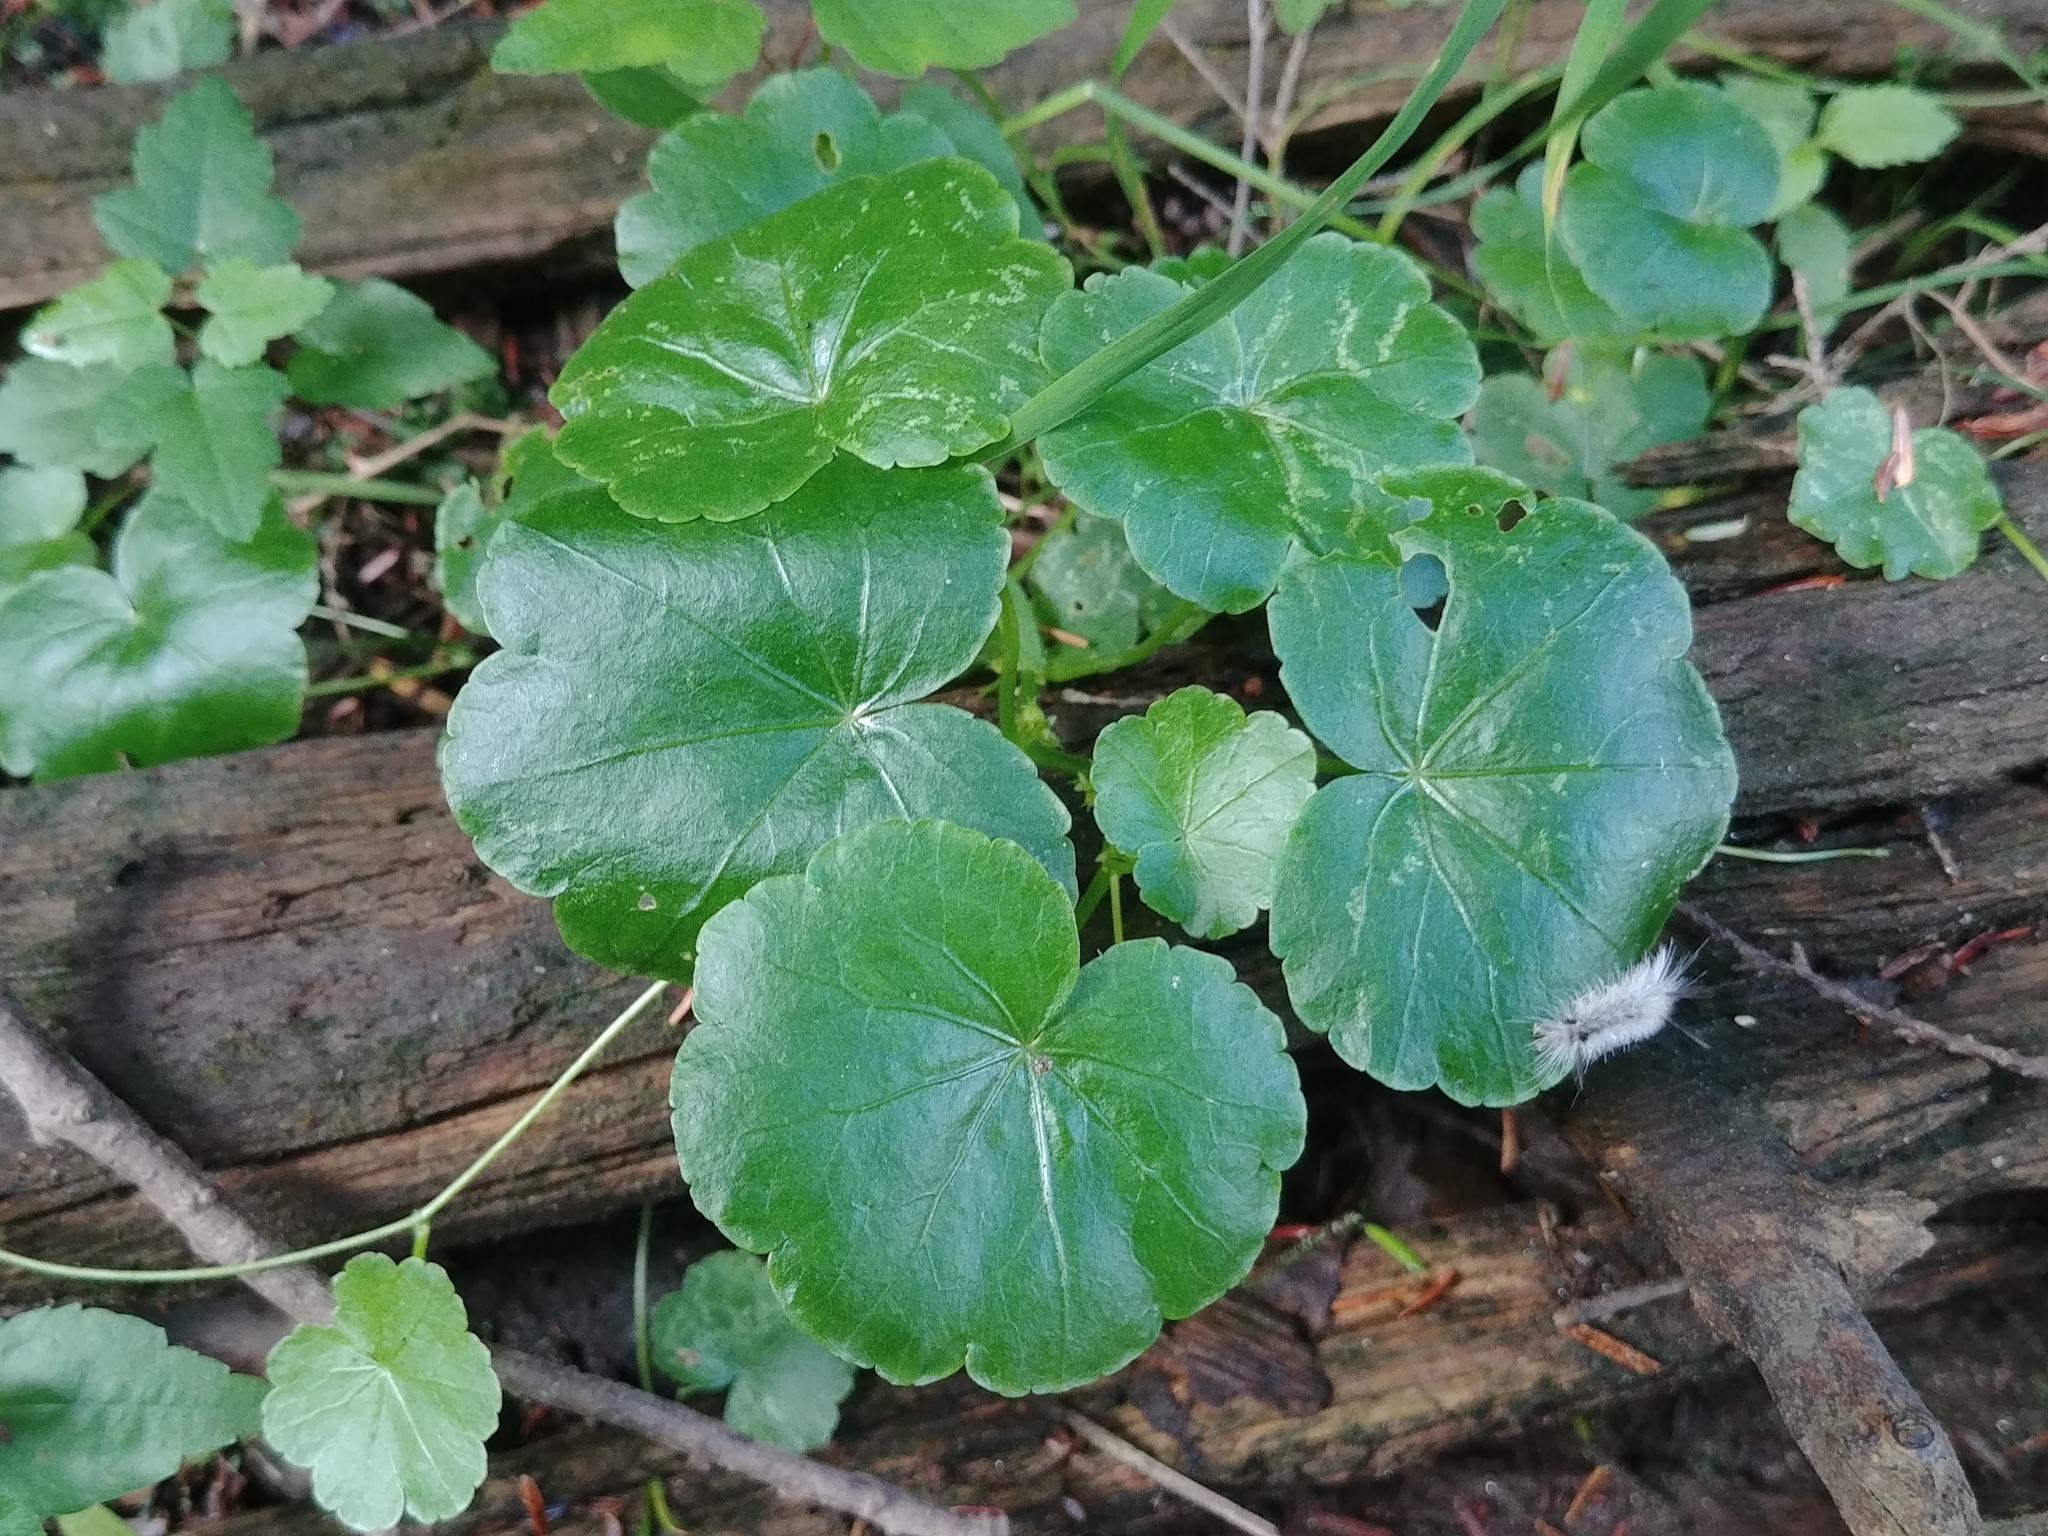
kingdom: Plantae
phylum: Tracheophyta
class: Magnoliopsida
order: Apiales
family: Araliaceae
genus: Hydrocotyle
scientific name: Hydrocotyle americana
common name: American water-pennywort
